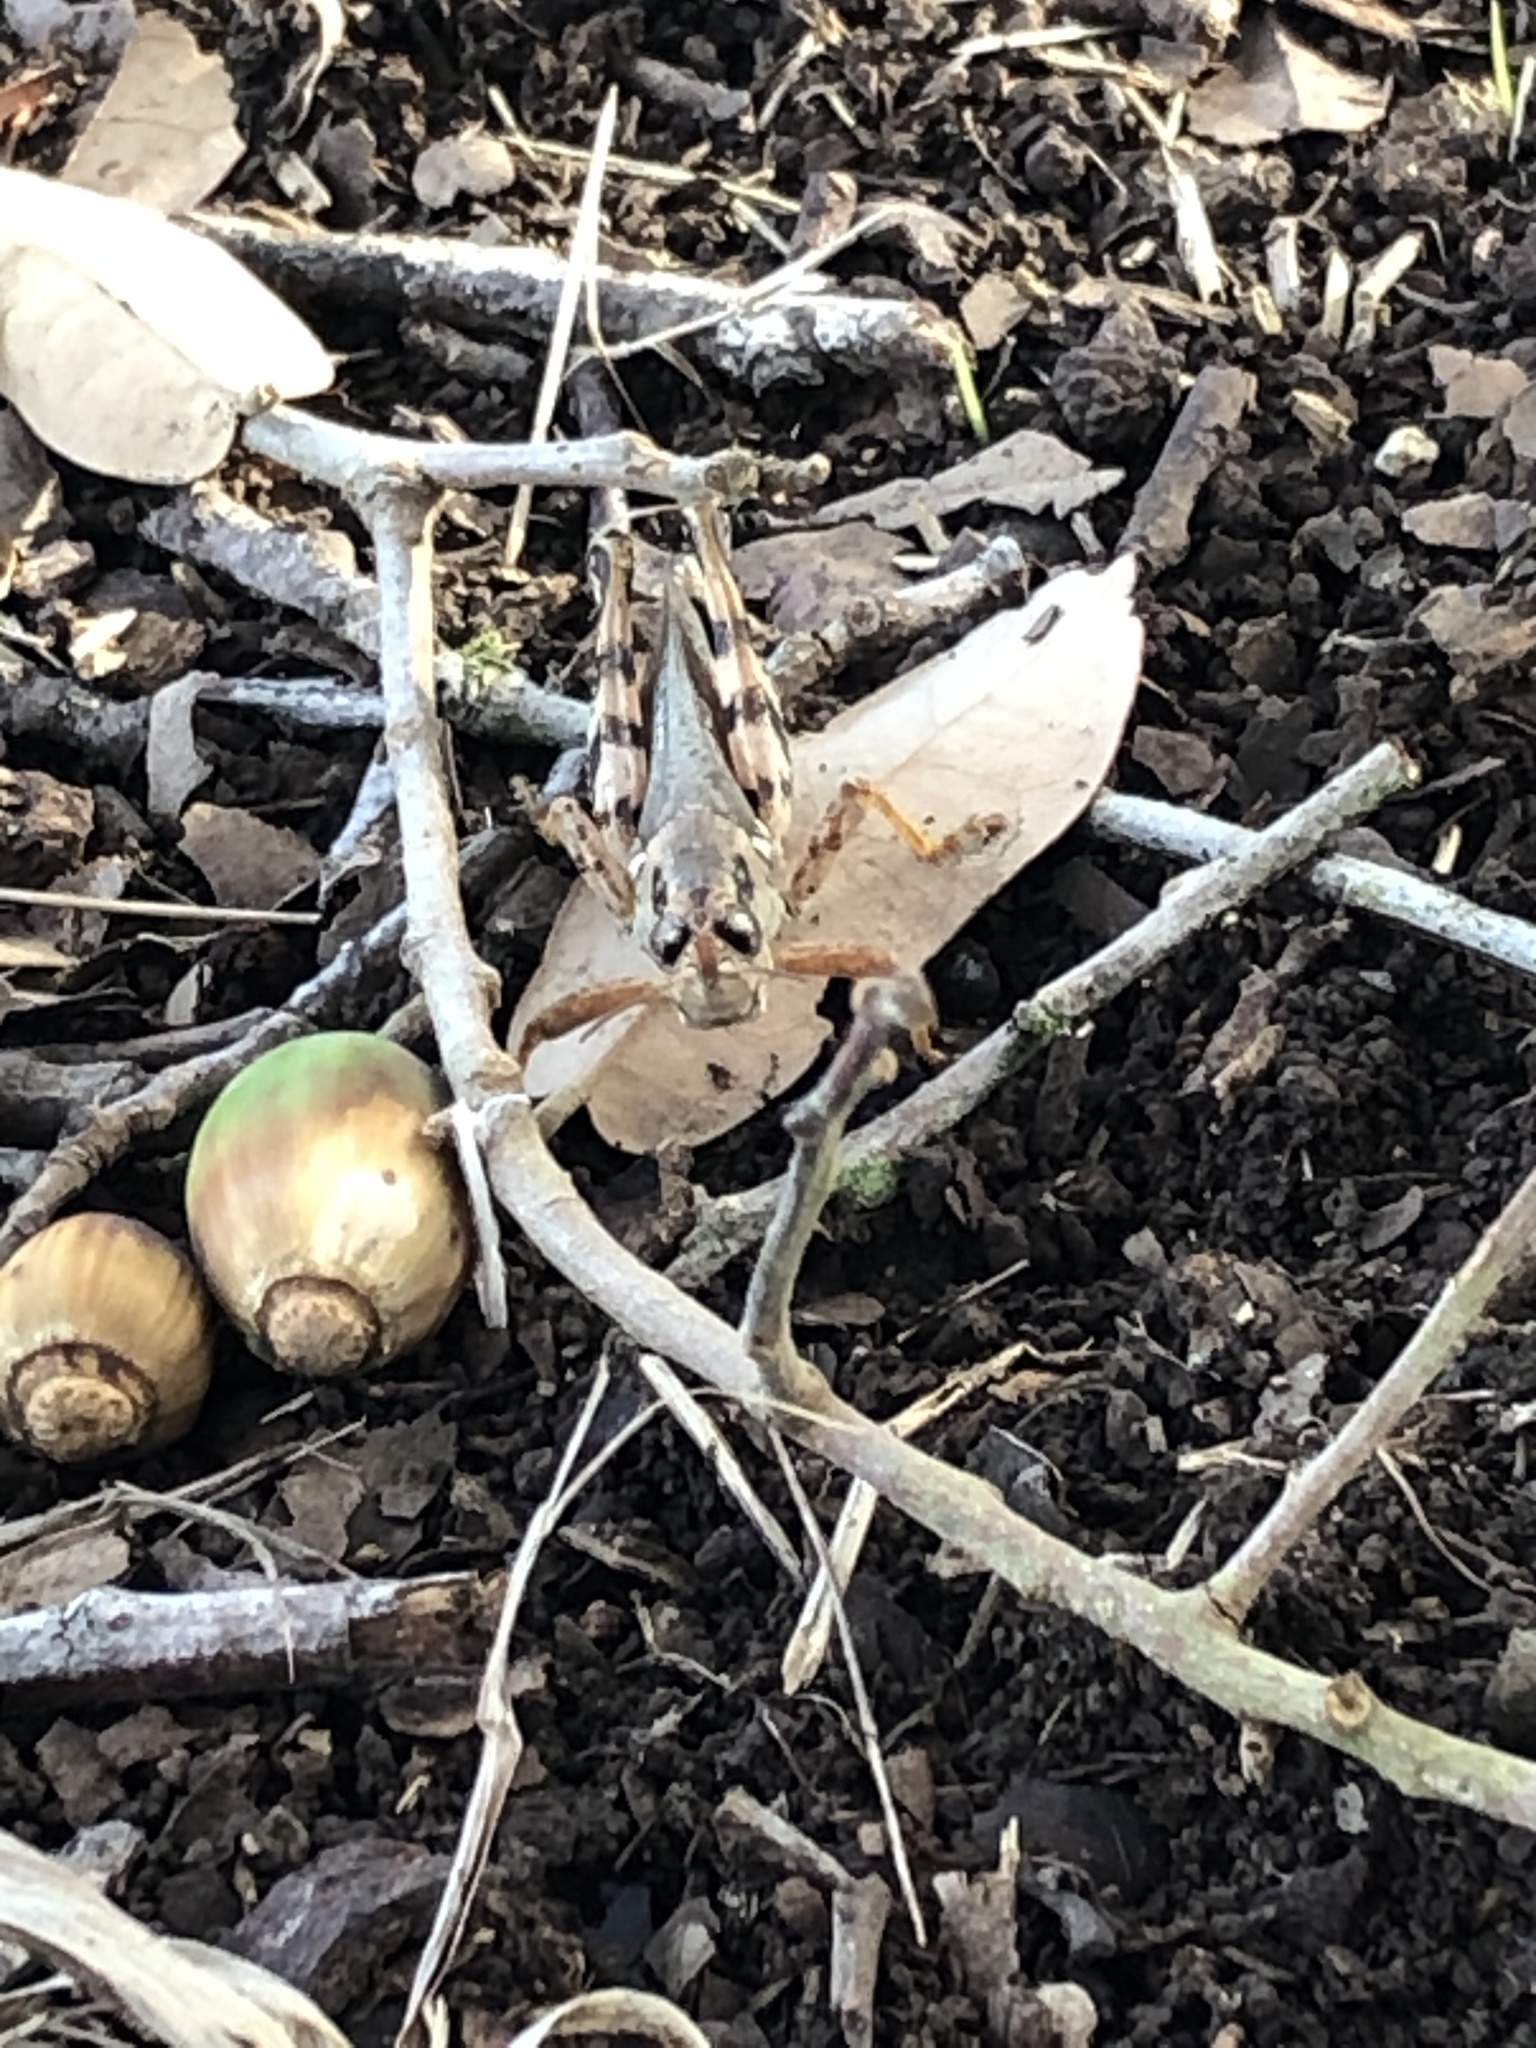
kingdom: Animalia
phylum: Arthropoda
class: Insecta
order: Orthoptera
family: Acrididae
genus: Melanoplus
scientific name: Melanoplus ponderosus
